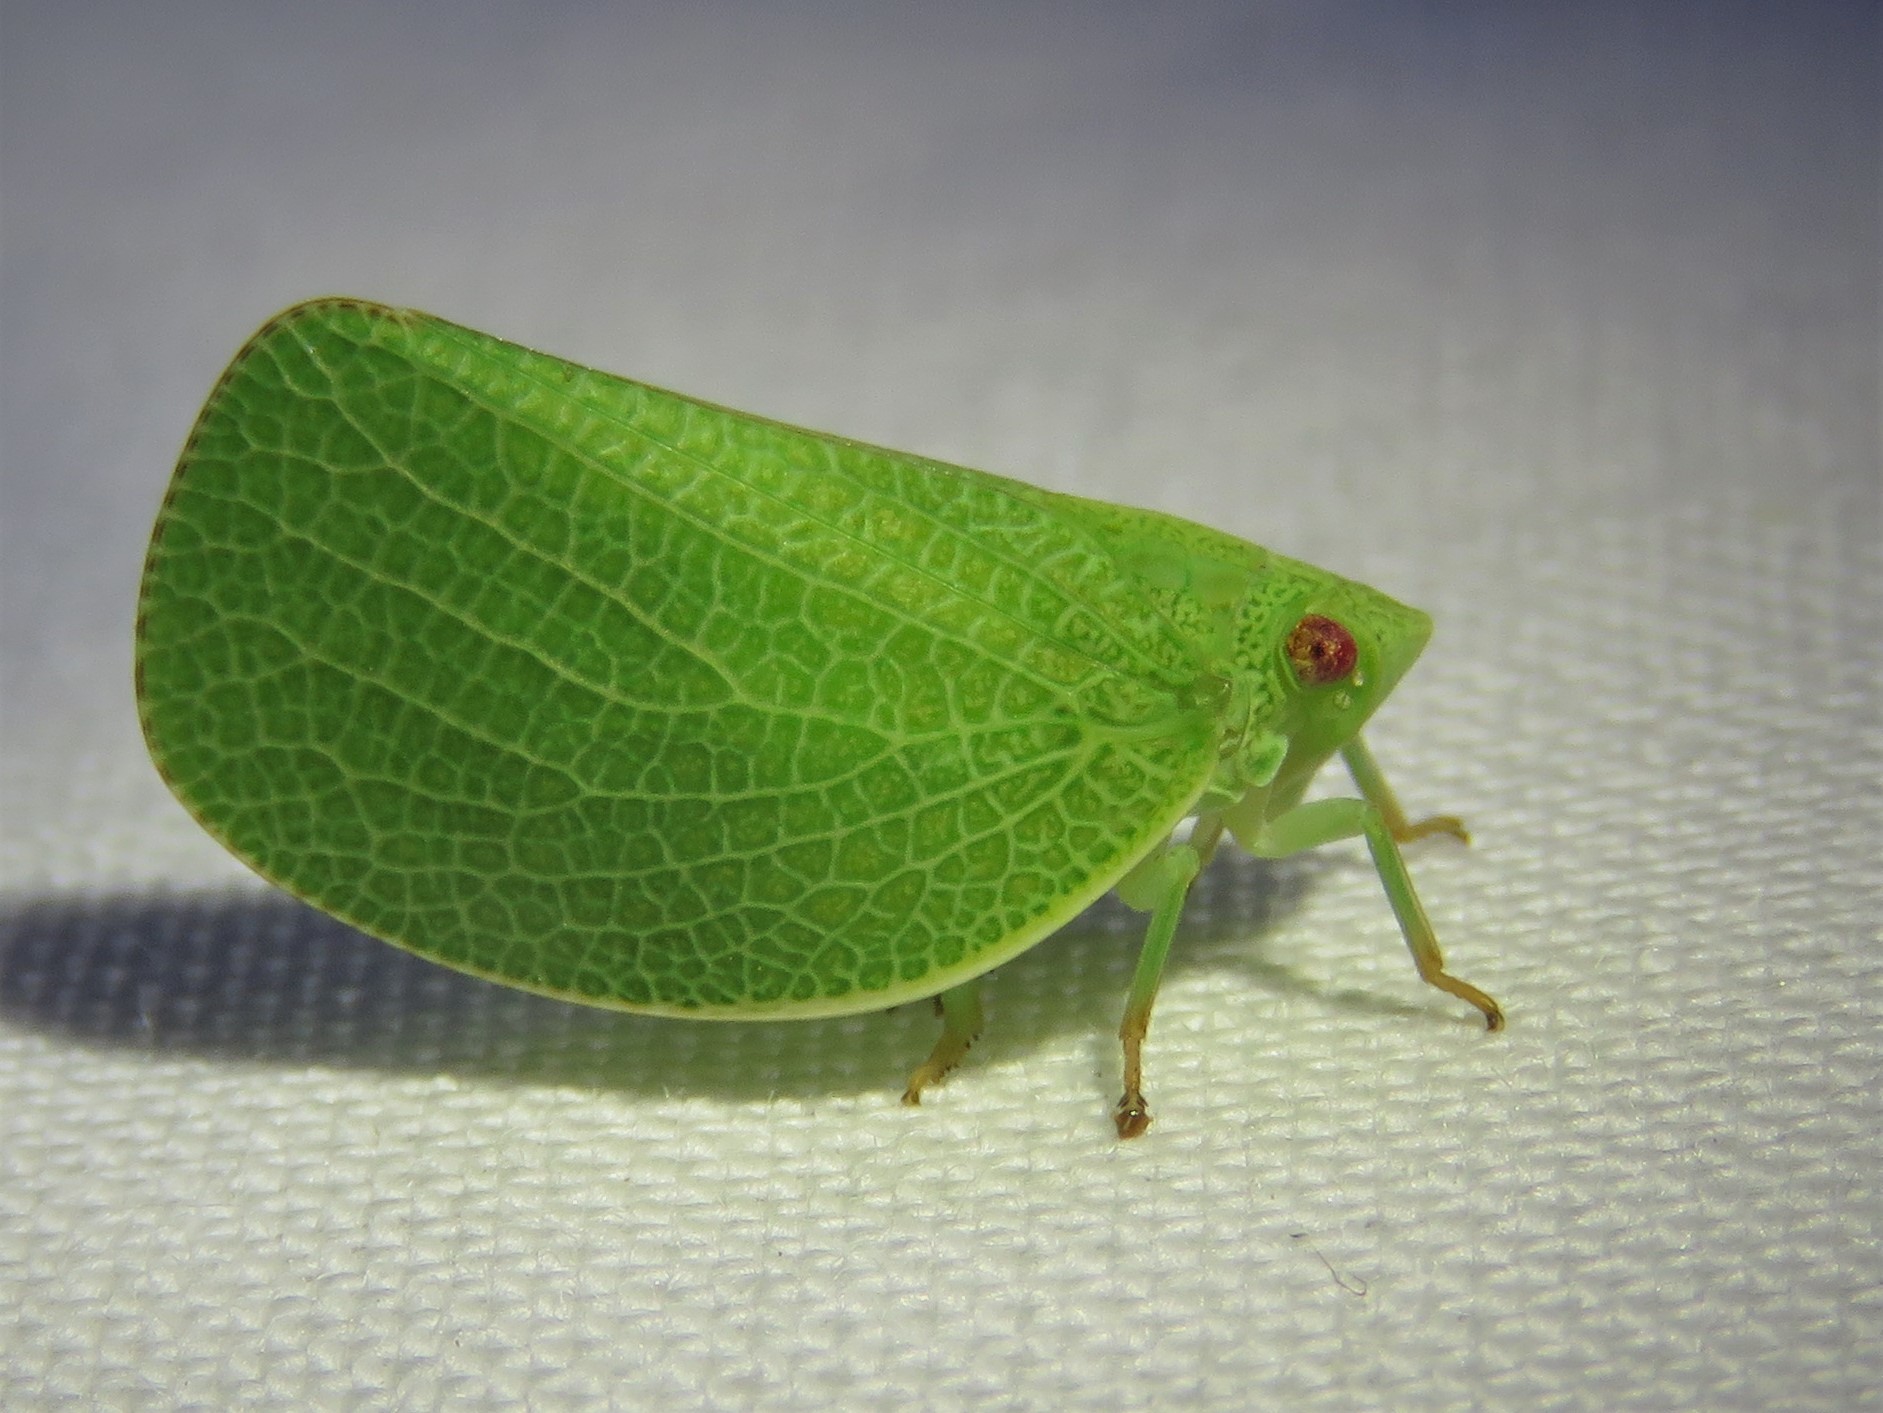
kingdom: Animalia
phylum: Arthropoda
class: Insecta
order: Hemiptera
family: Acanaloniidae
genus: Acanalonia
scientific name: Acanalonia conica
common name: Green cone-headed planthopper
